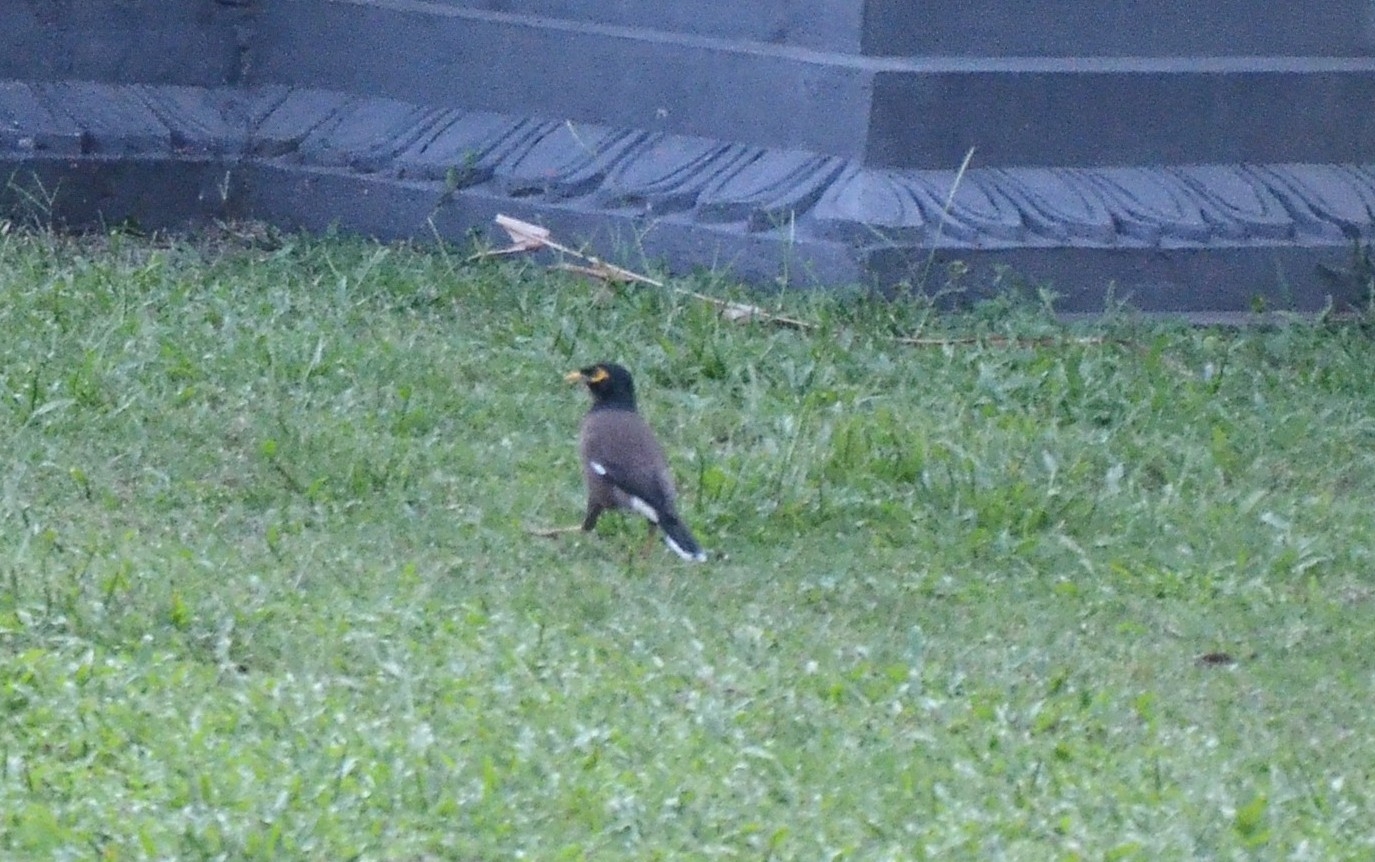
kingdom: Animalia
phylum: Chordata
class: Aves
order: Passeriformes
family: Sturnidae
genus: Acridotheres
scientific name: Acridotheres tristis
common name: Common myna
